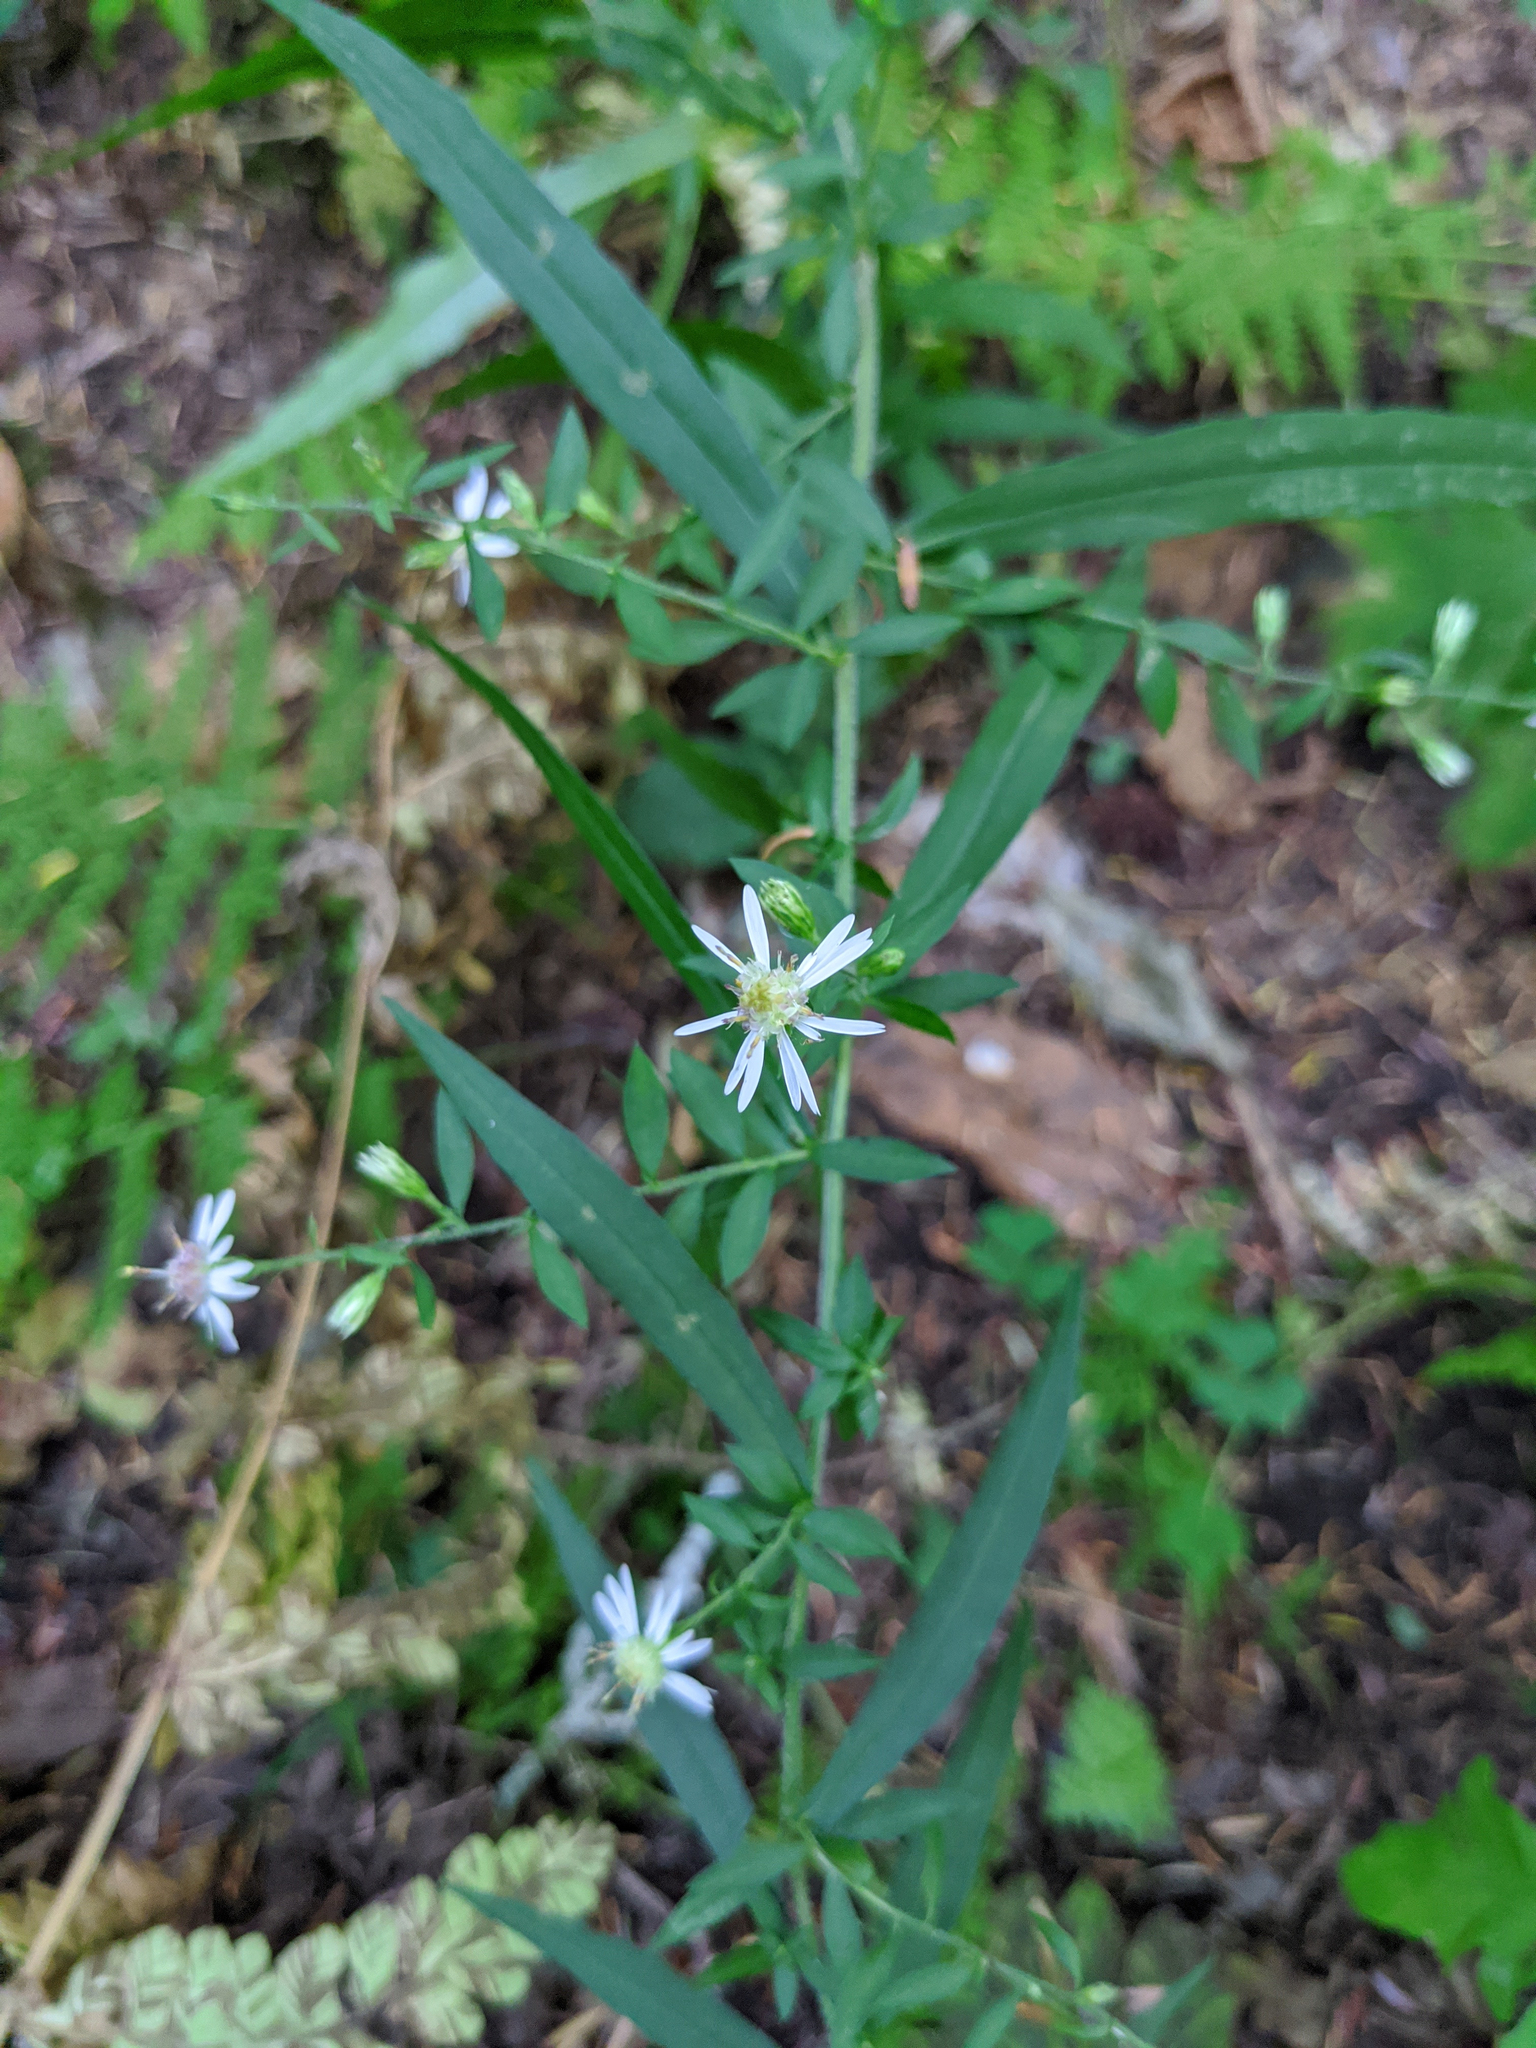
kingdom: Plantae
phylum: Tracheophyta
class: Magnoliopsida
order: Asterales
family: Asteraceae
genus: Symphyotrichum
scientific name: Symphyotrichum lateriflorum
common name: Calico aster
